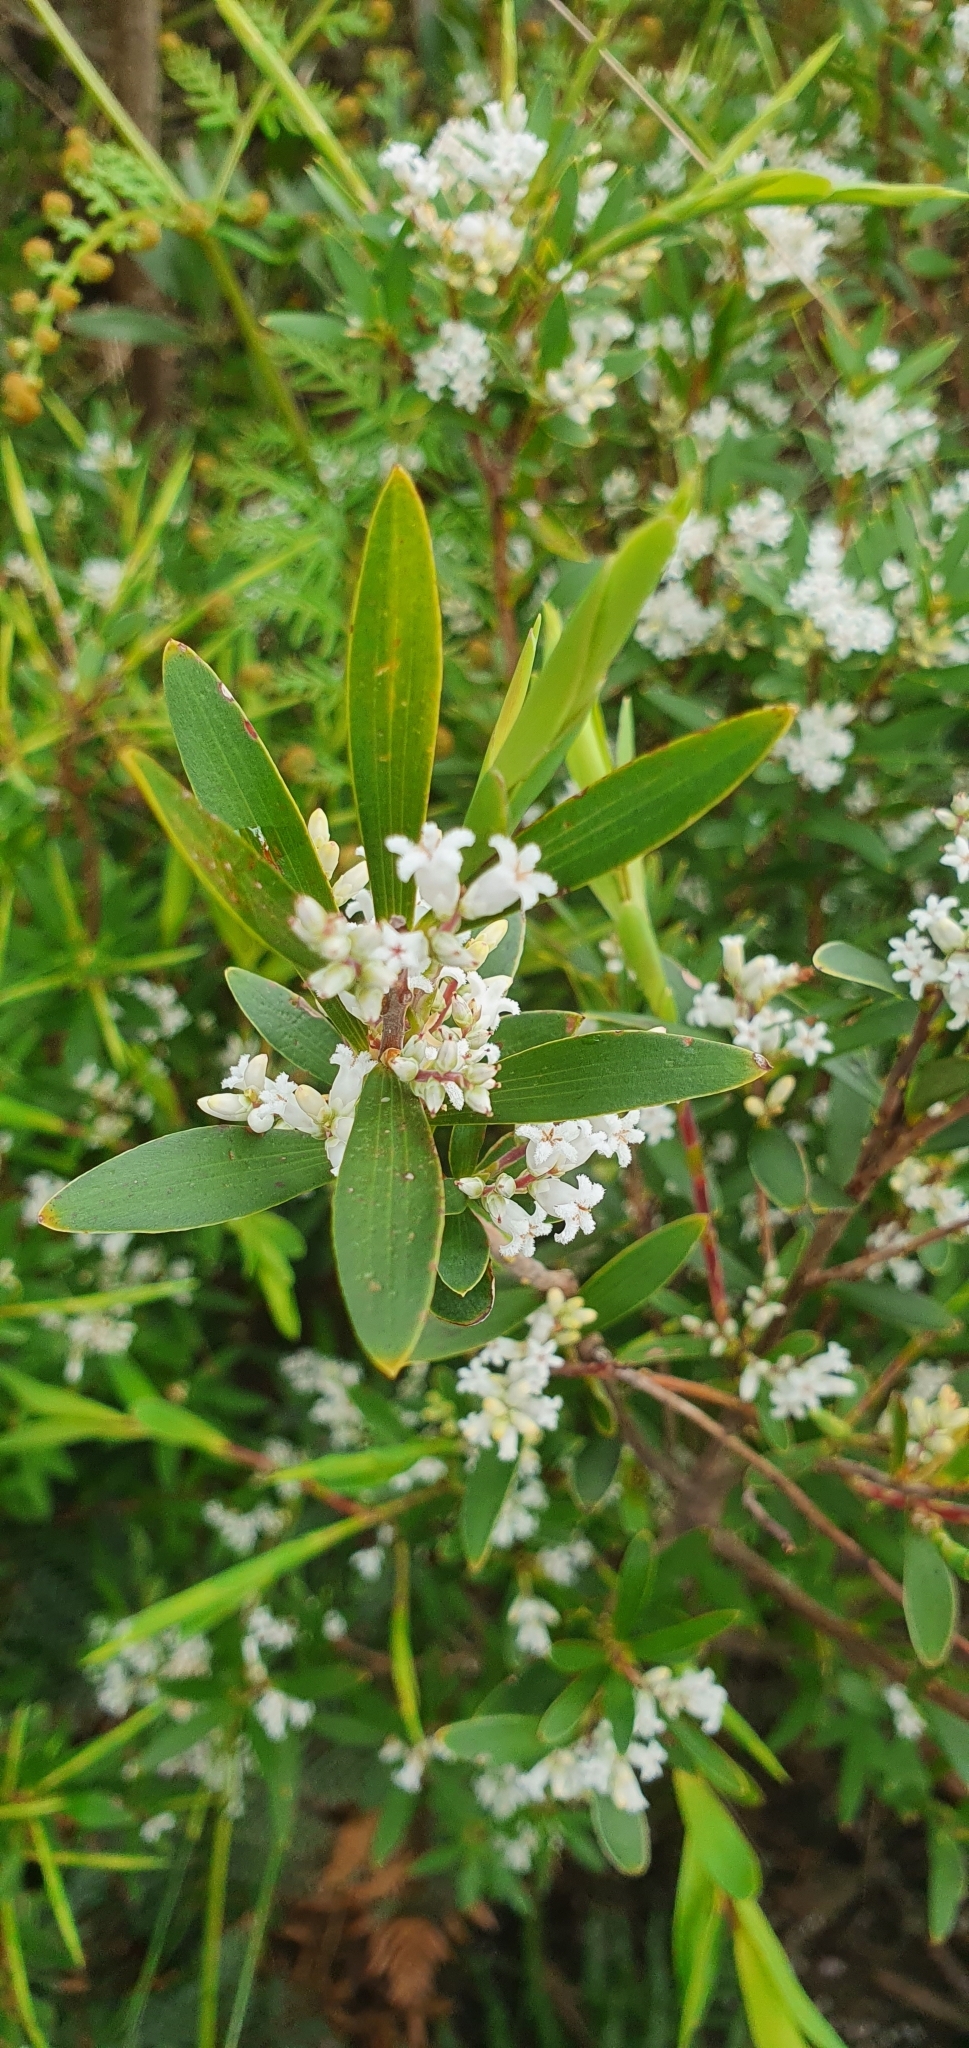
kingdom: Plantae
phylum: Tracheophyta
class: Magnoliopsida
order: Ericales
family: Ericaceae
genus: Leptecophylla
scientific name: Leptecophylla parvifolia
